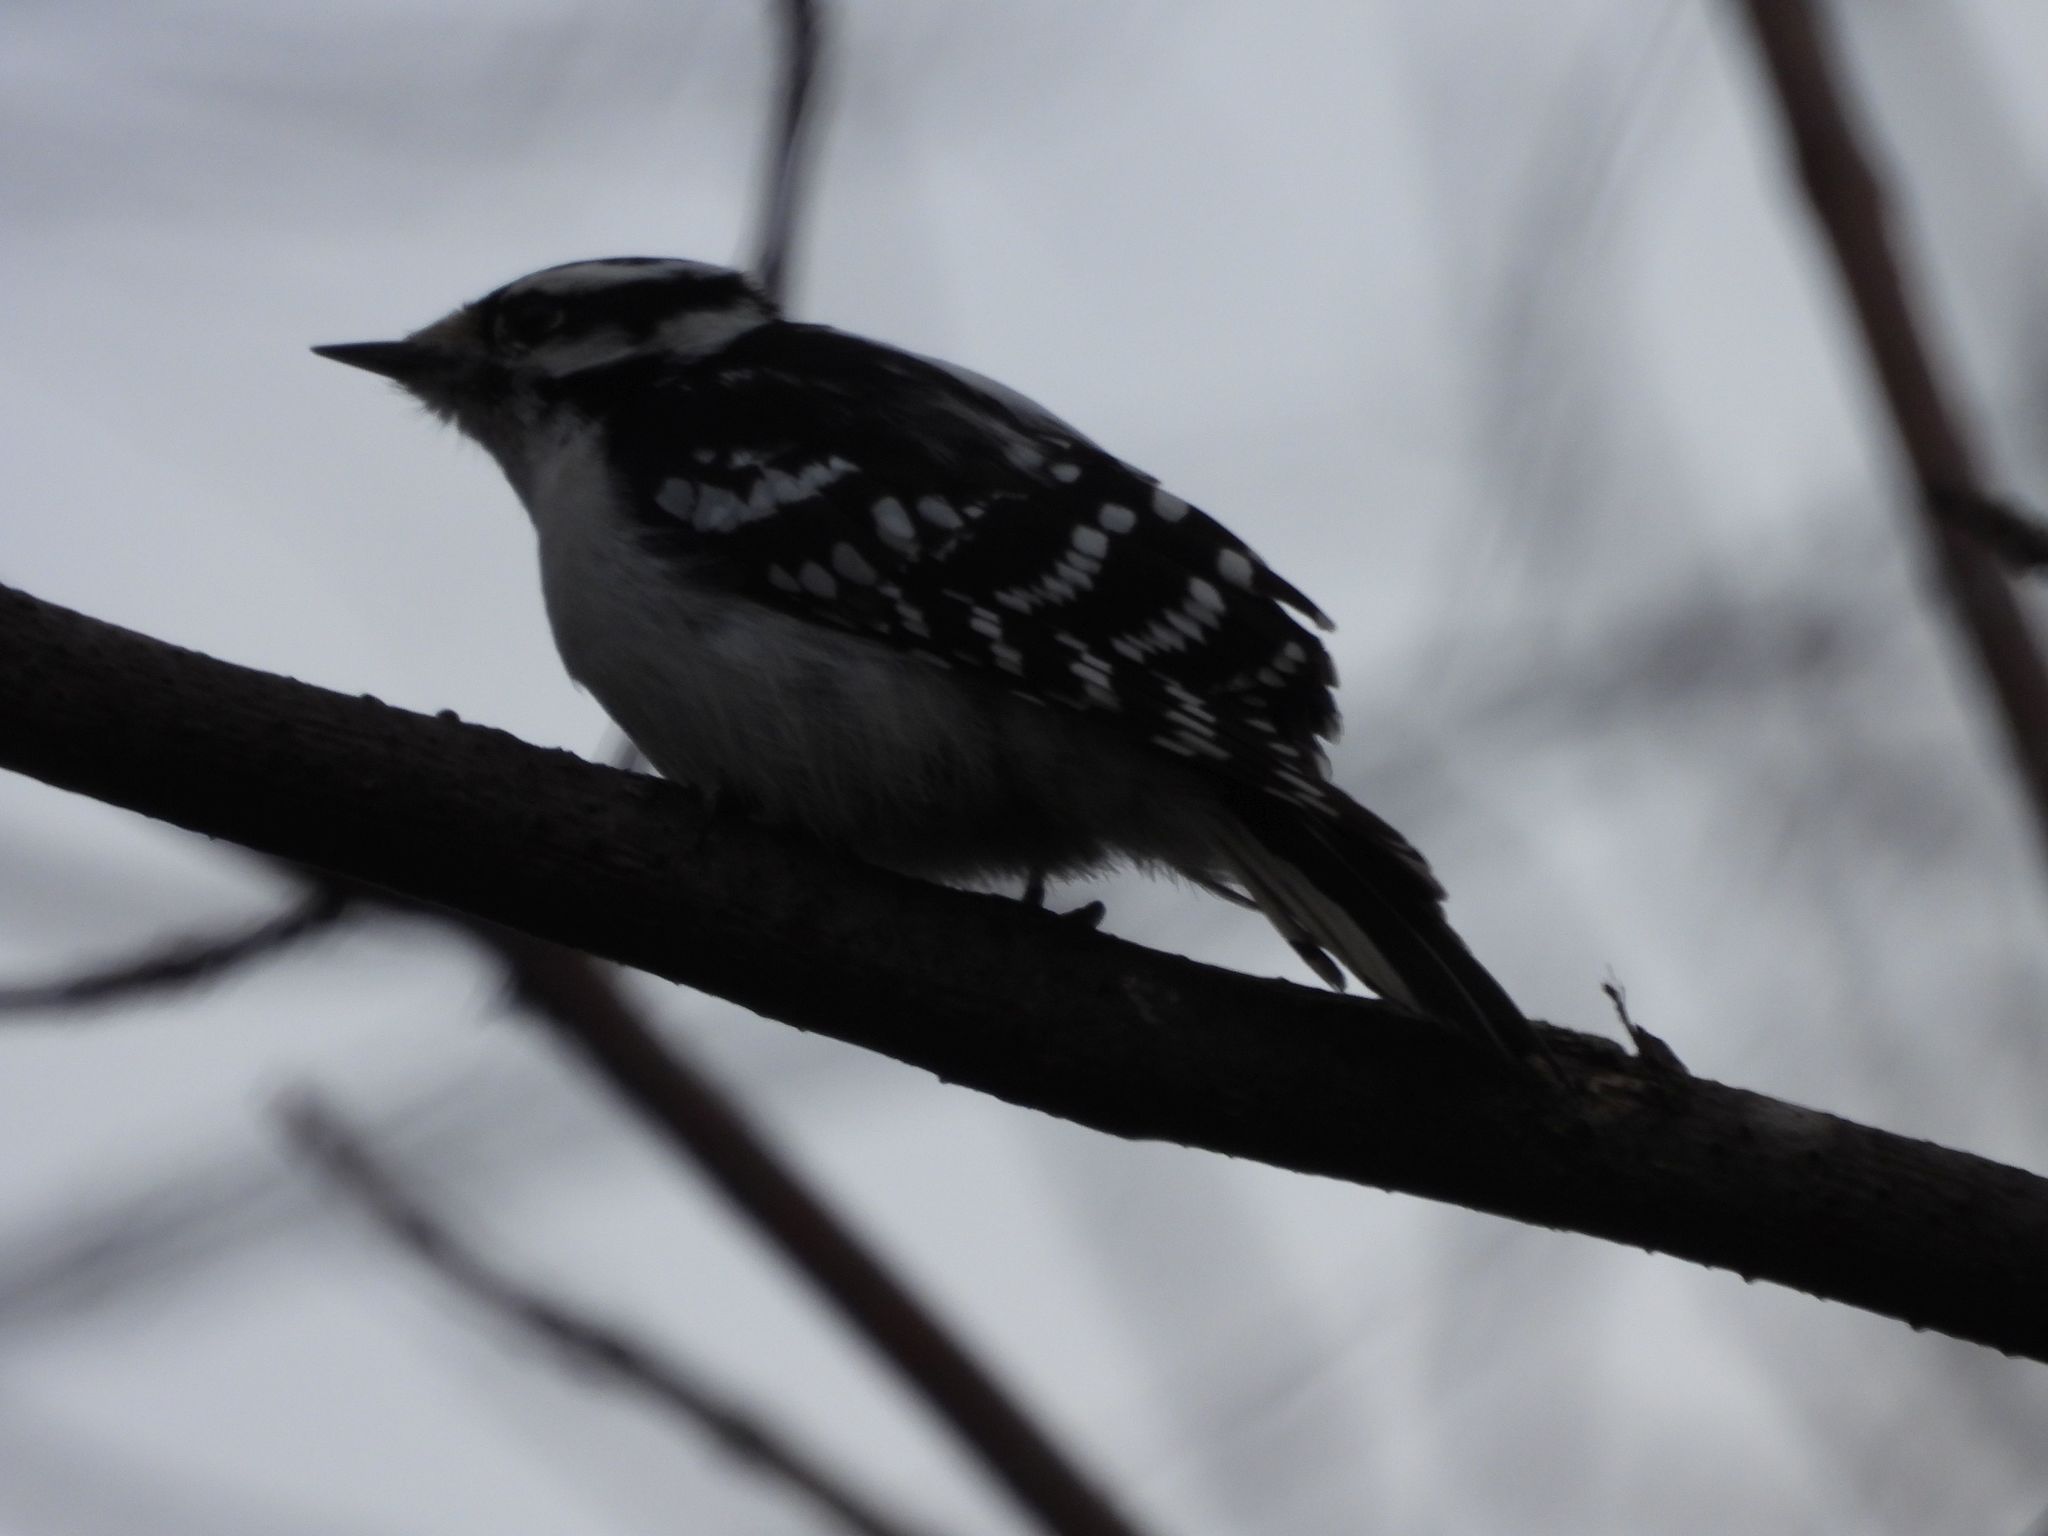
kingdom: Animalia
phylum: Chordata
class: Aves
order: Piciformes
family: Picidae
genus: Dryobates
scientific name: Dryobates pubescens
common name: Downy woodpecker
